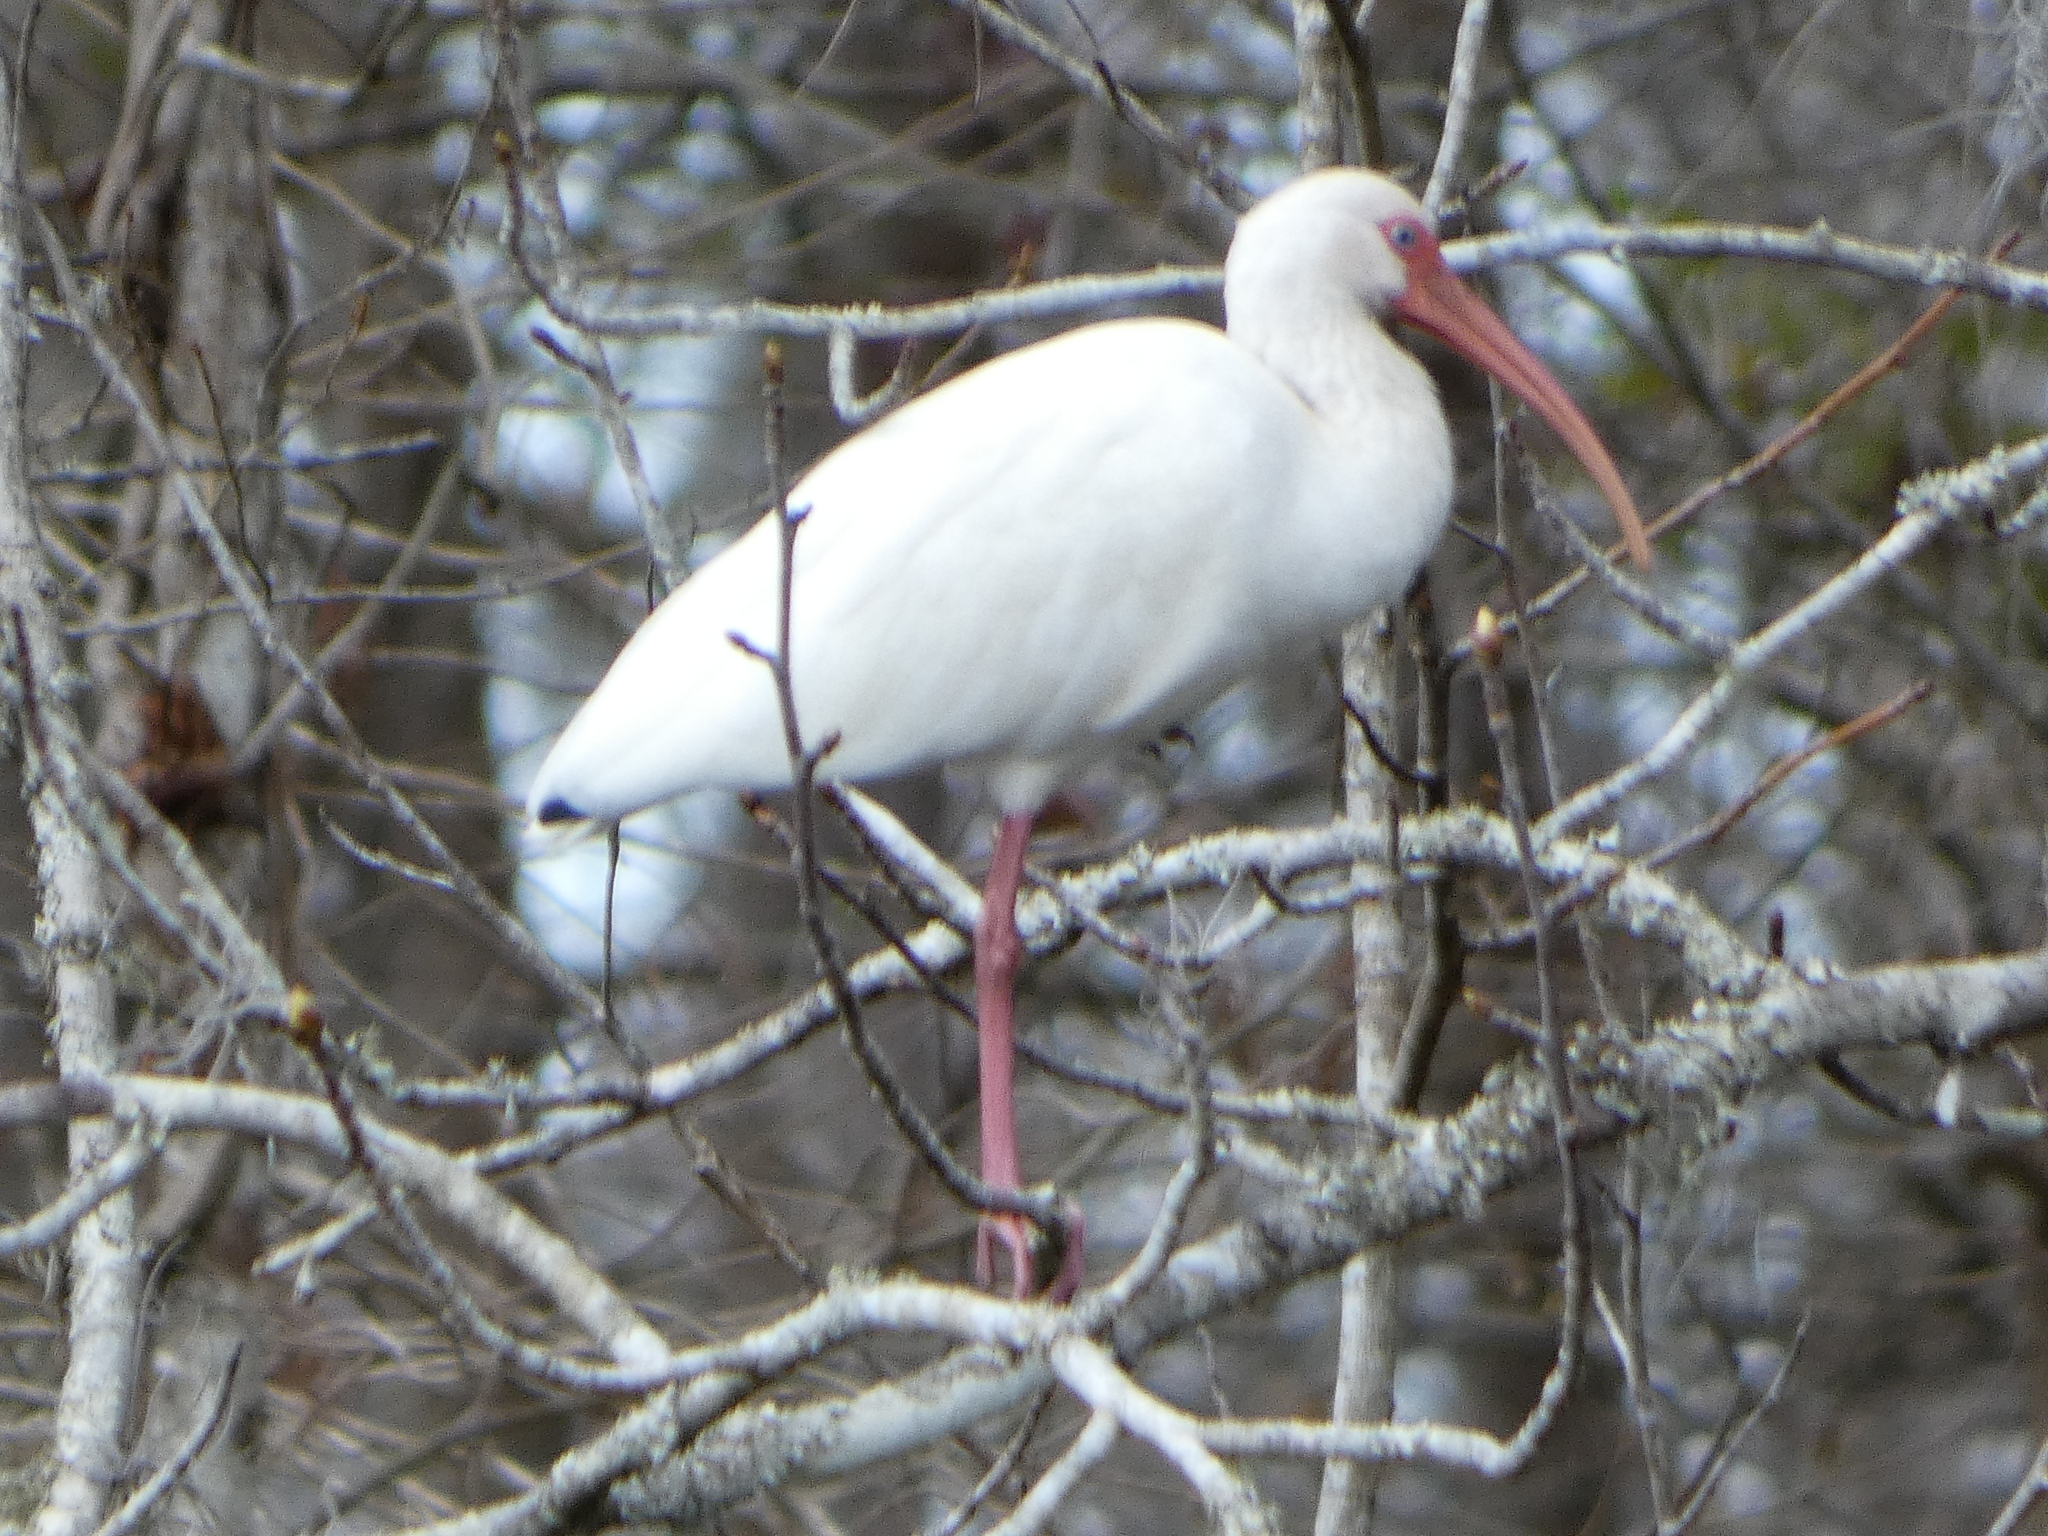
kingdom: Animalia
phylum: Chordata
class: Aves
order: Pelecaniformes
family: Threskiornithidae
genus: Eudocimus
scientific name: Eudocimus albus
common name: White ibis
